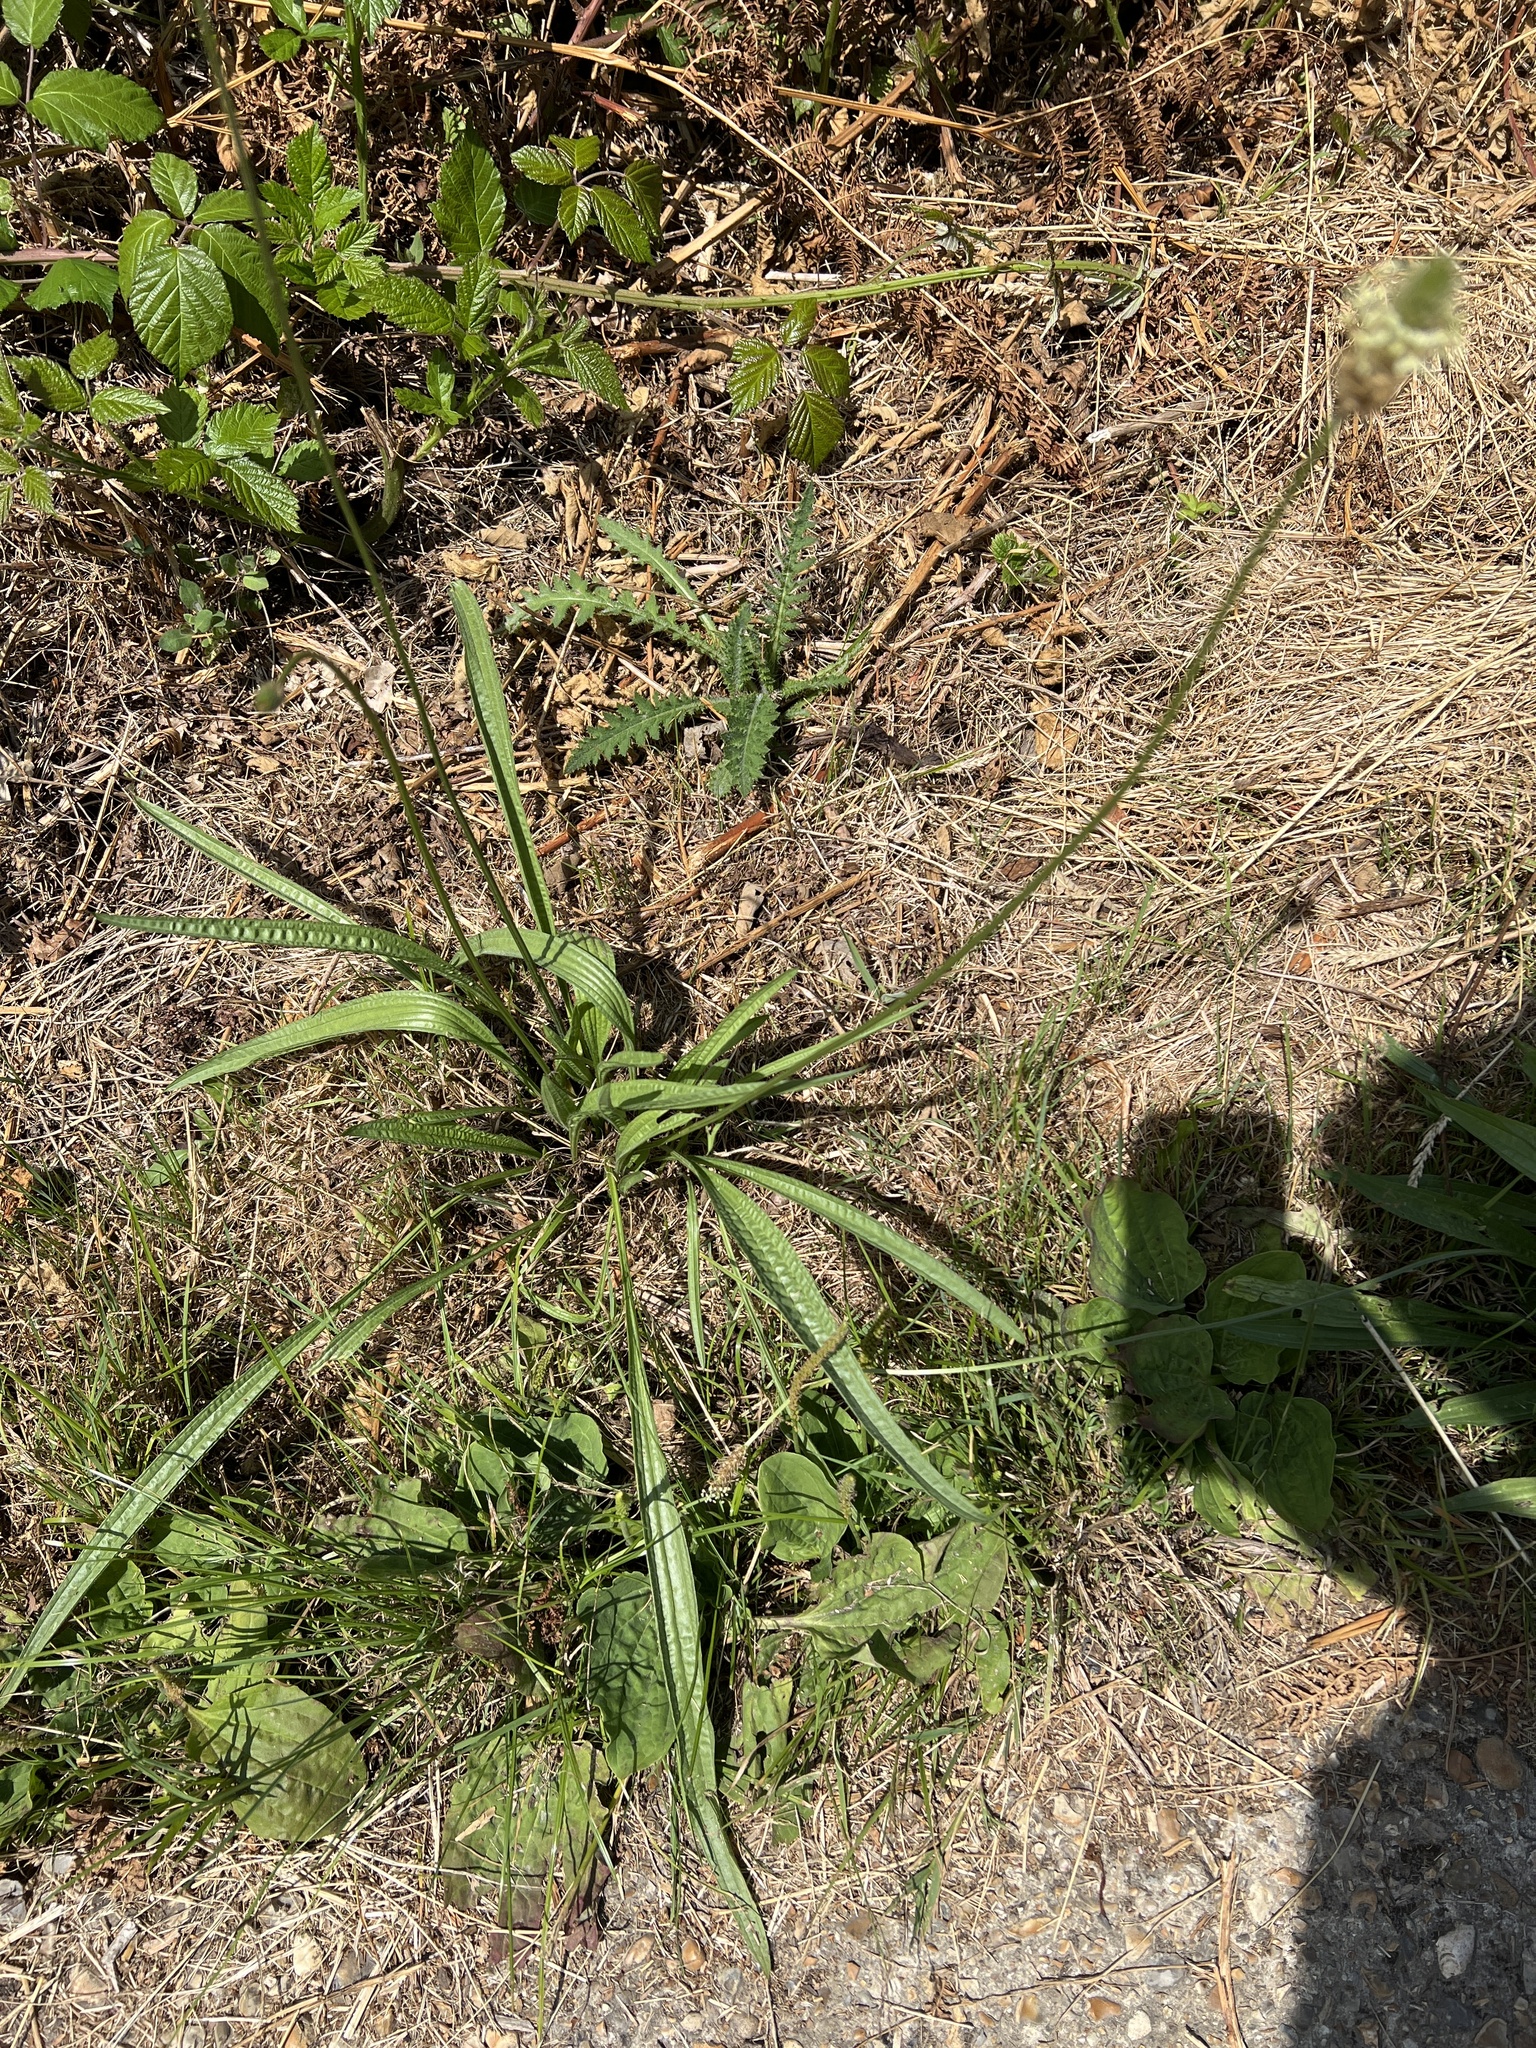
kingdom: Plantae
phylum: Tracheophyta
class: Magnoliopsida
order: Lamiales
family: Plantaginaceae
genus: Plantago
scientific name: Plantago lanceolata
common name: Ribwort plantain
